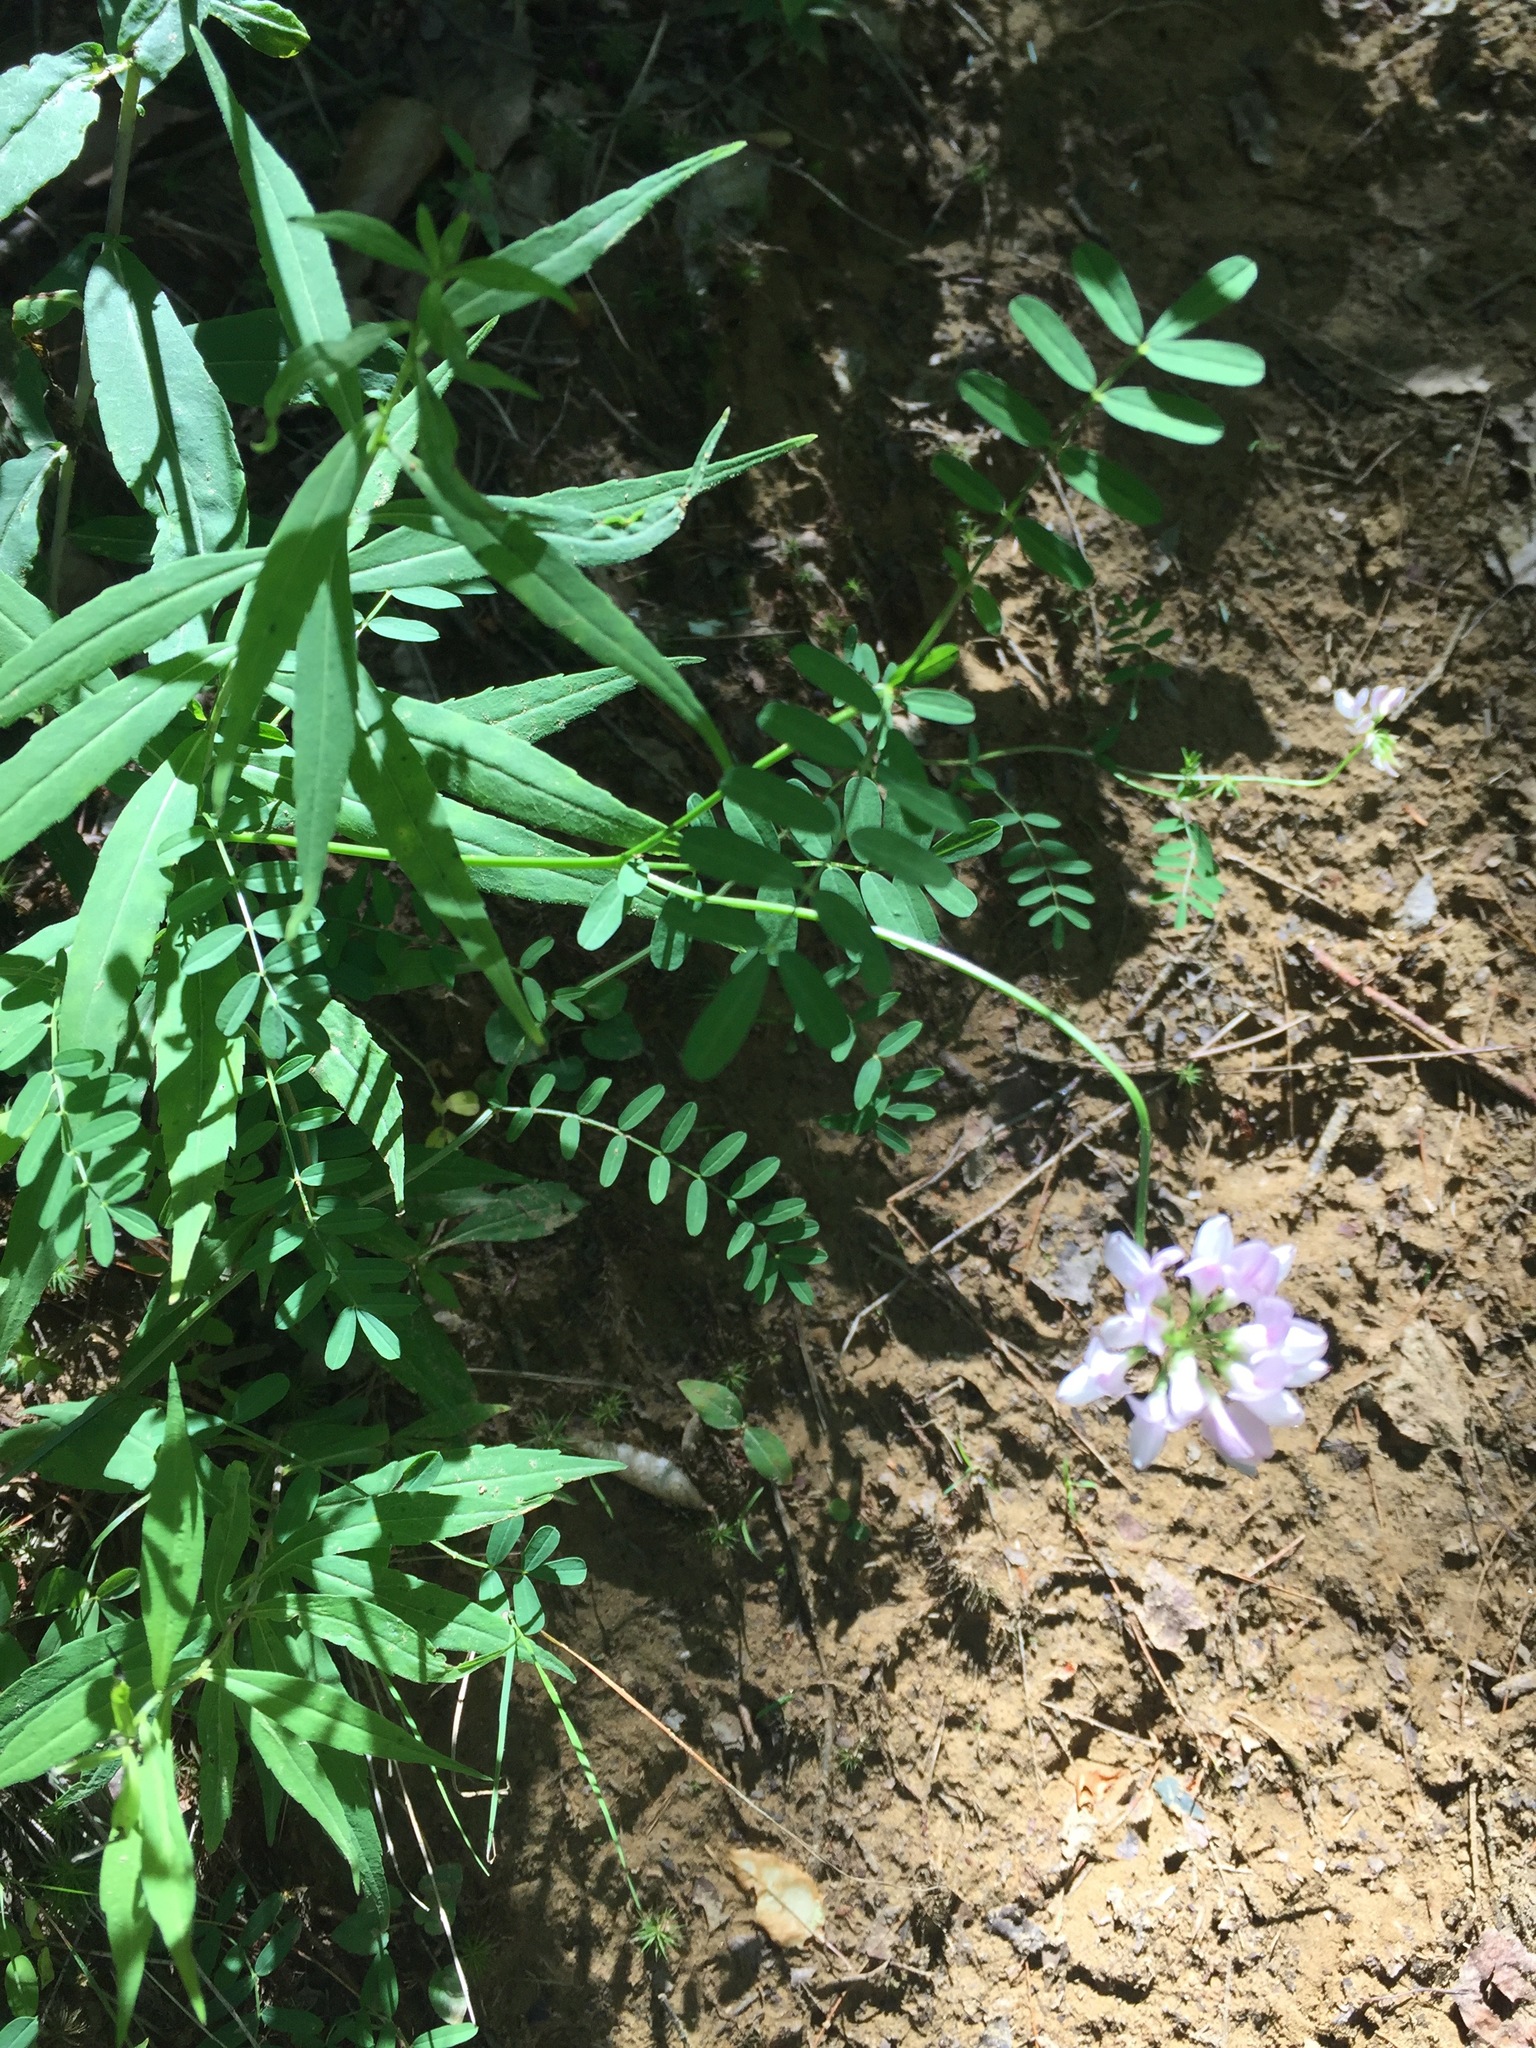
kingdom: Plantae
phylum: Tracheophyta
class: Magnoliopsida
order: Fabales
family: Fabaceae
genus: Coronilla
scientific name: Coronilla varia
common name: Crownvetch
